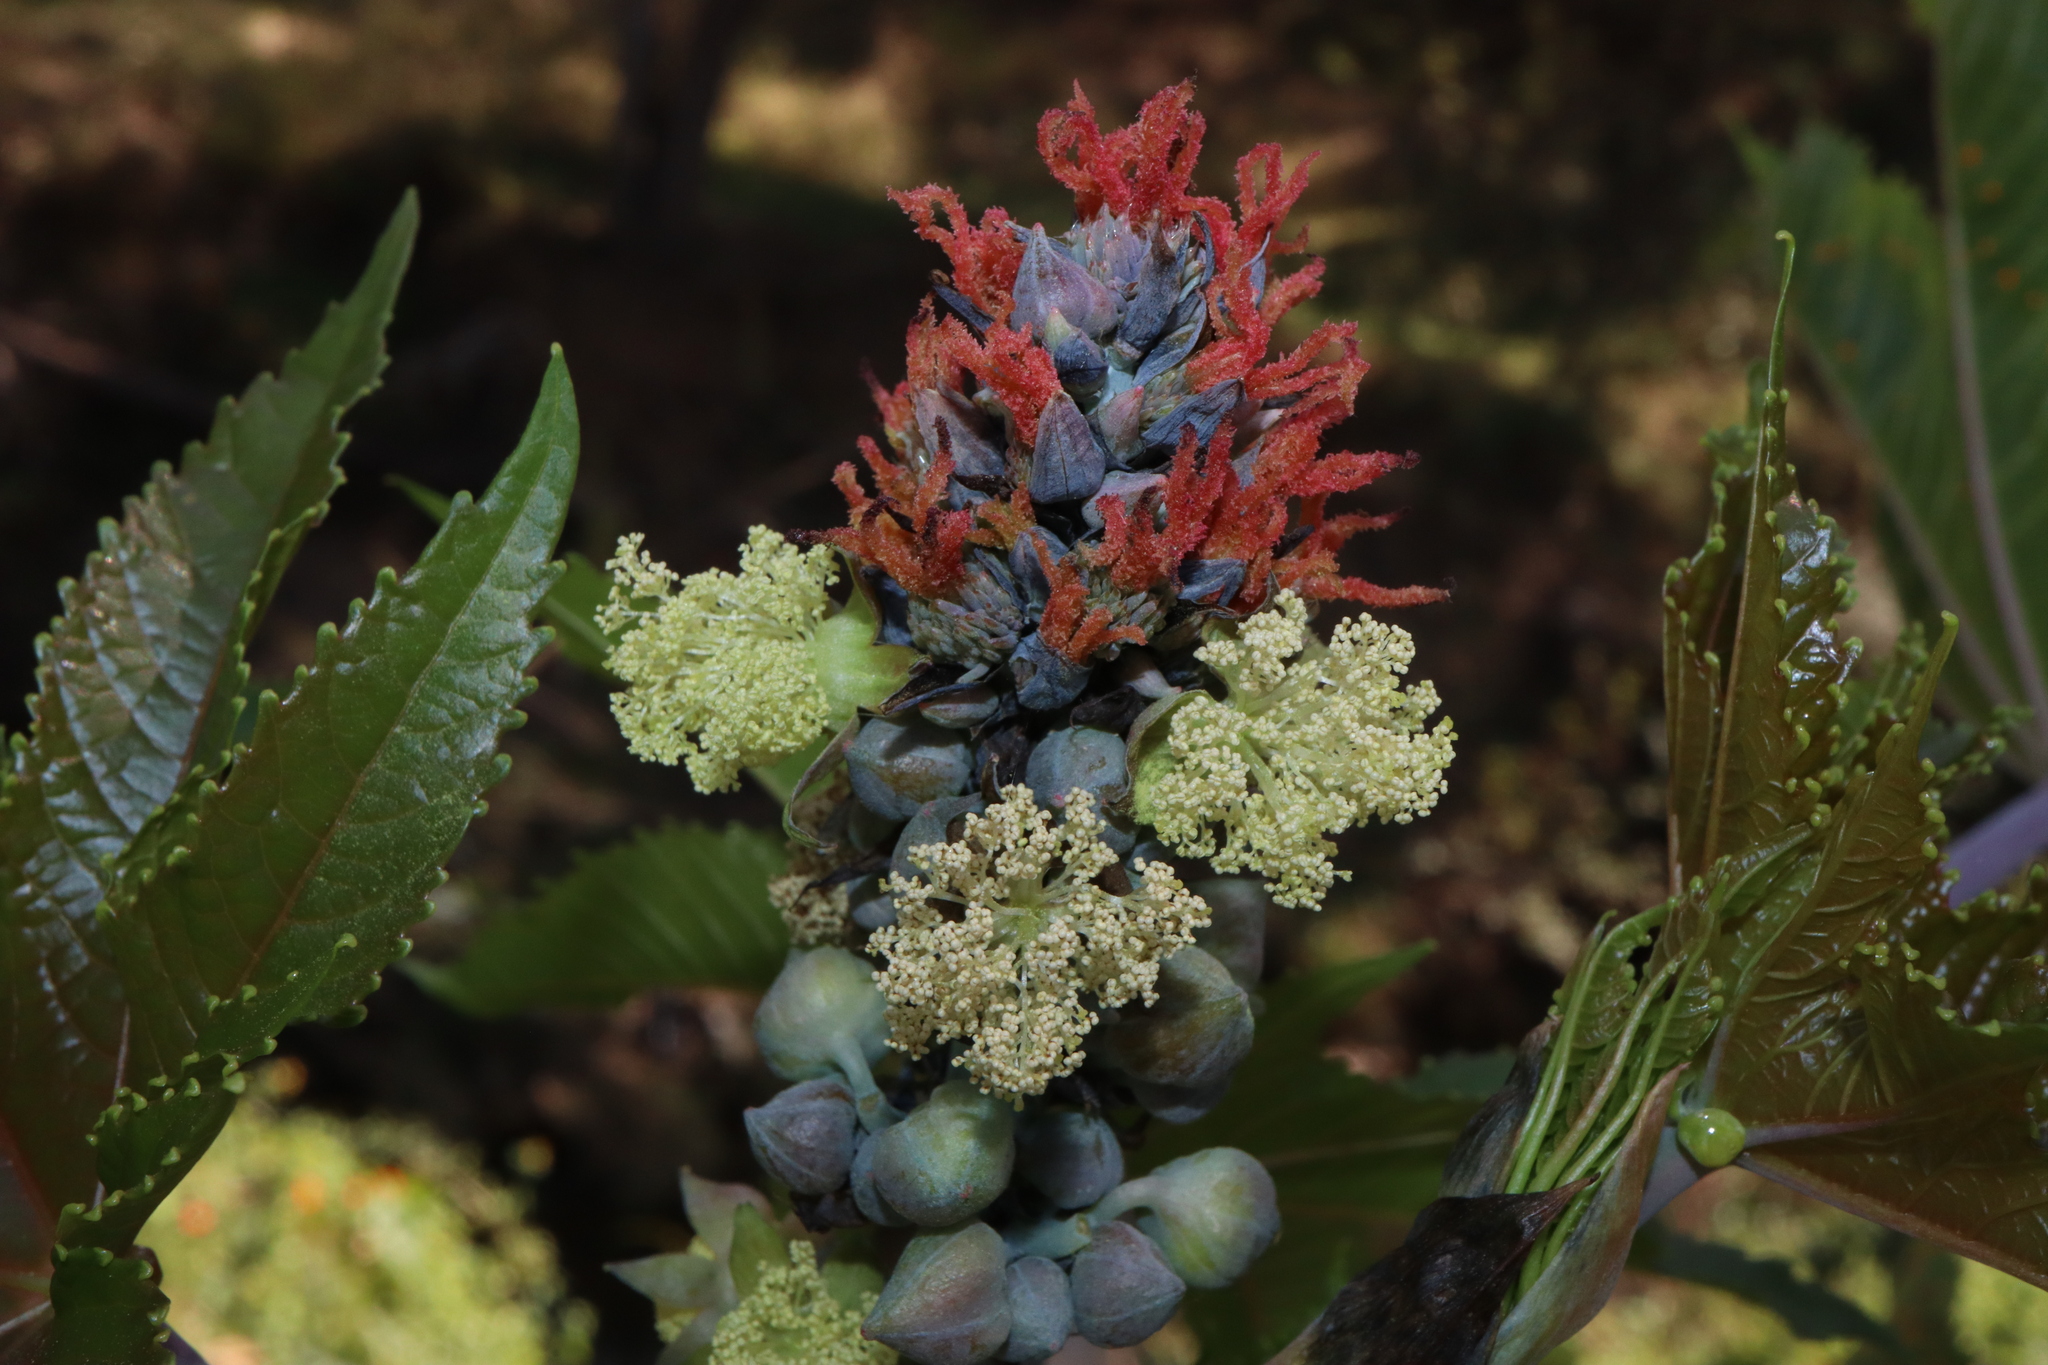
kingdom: Plantae
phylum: Tracheophyta
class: Magnoliopsida
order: Malpighiales
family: Euphorbiaceae
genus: Ricinus
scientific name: Ricinus communis
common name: Castor-oil-plant
